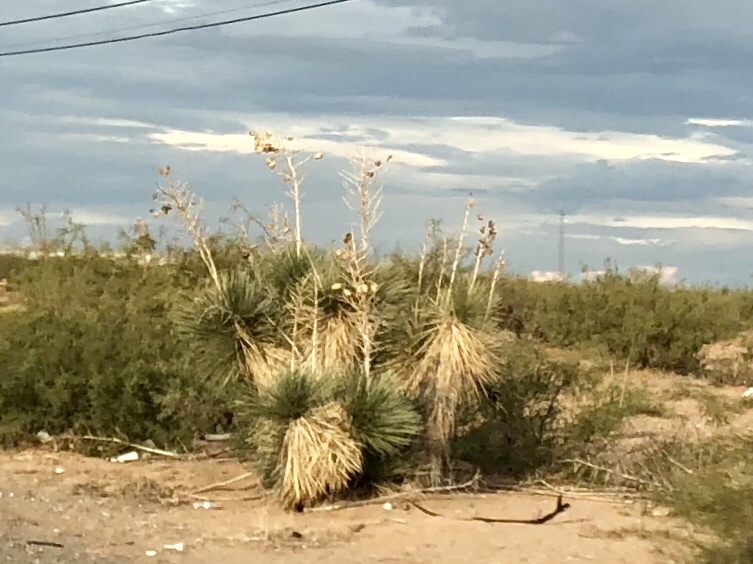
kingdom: Plantae
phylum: Tracheophyta
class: Liliopsida
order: Asparagales
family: Asparagaceae
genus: Yucca
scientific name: Yucca elata
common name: Palmella
